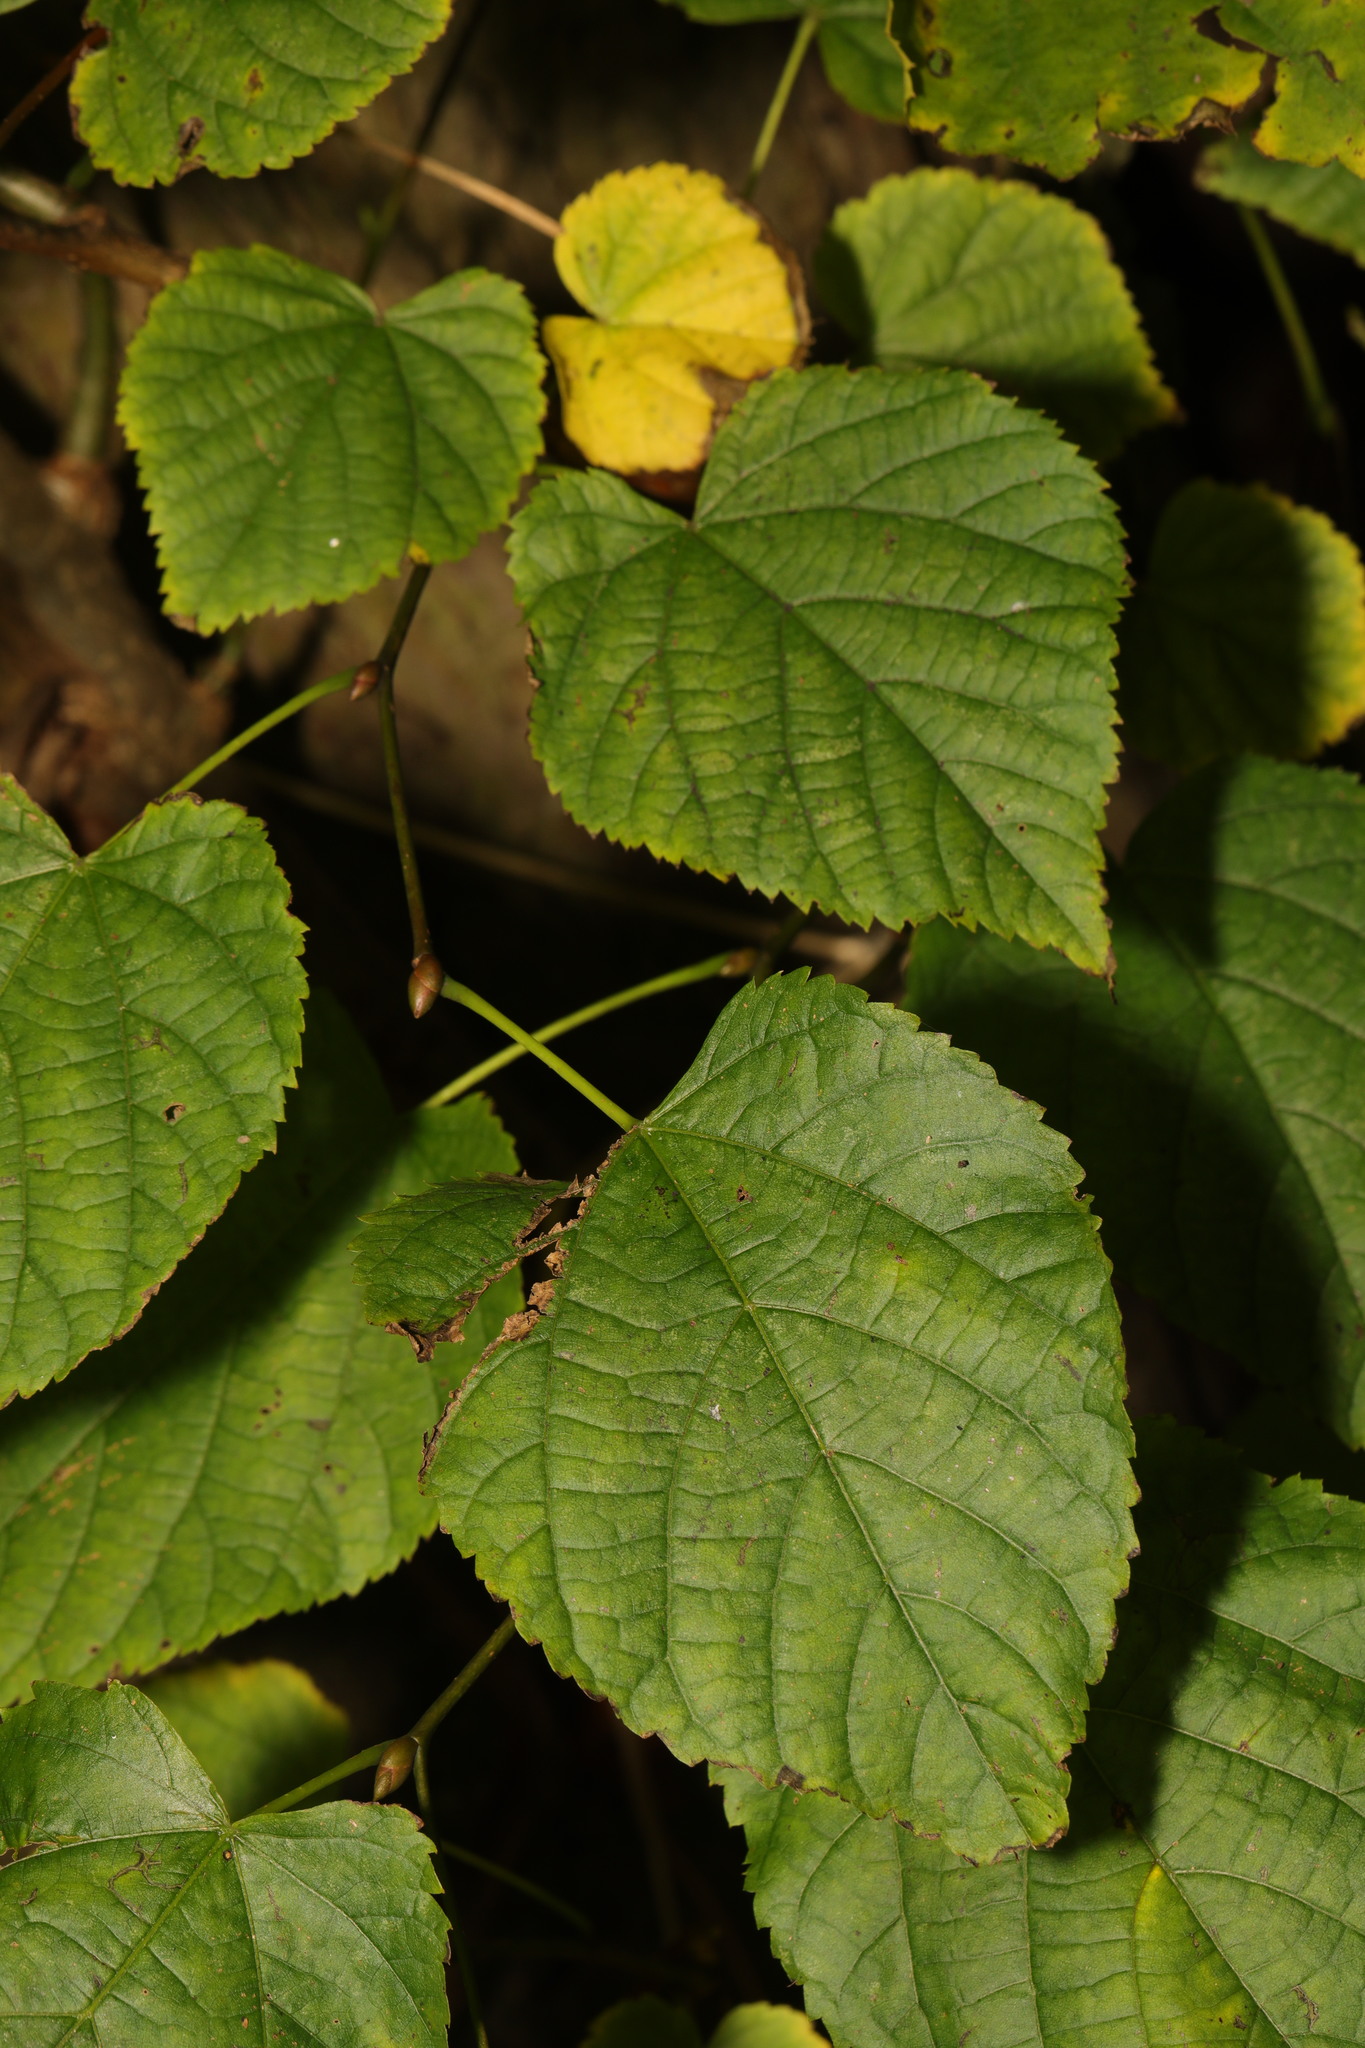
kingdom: Plantae
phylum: Tracheophyta
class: Magnoliopsida
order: Malvales
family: Malvaceae
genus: Tilia
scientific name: Tilia europaea
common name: European linden
